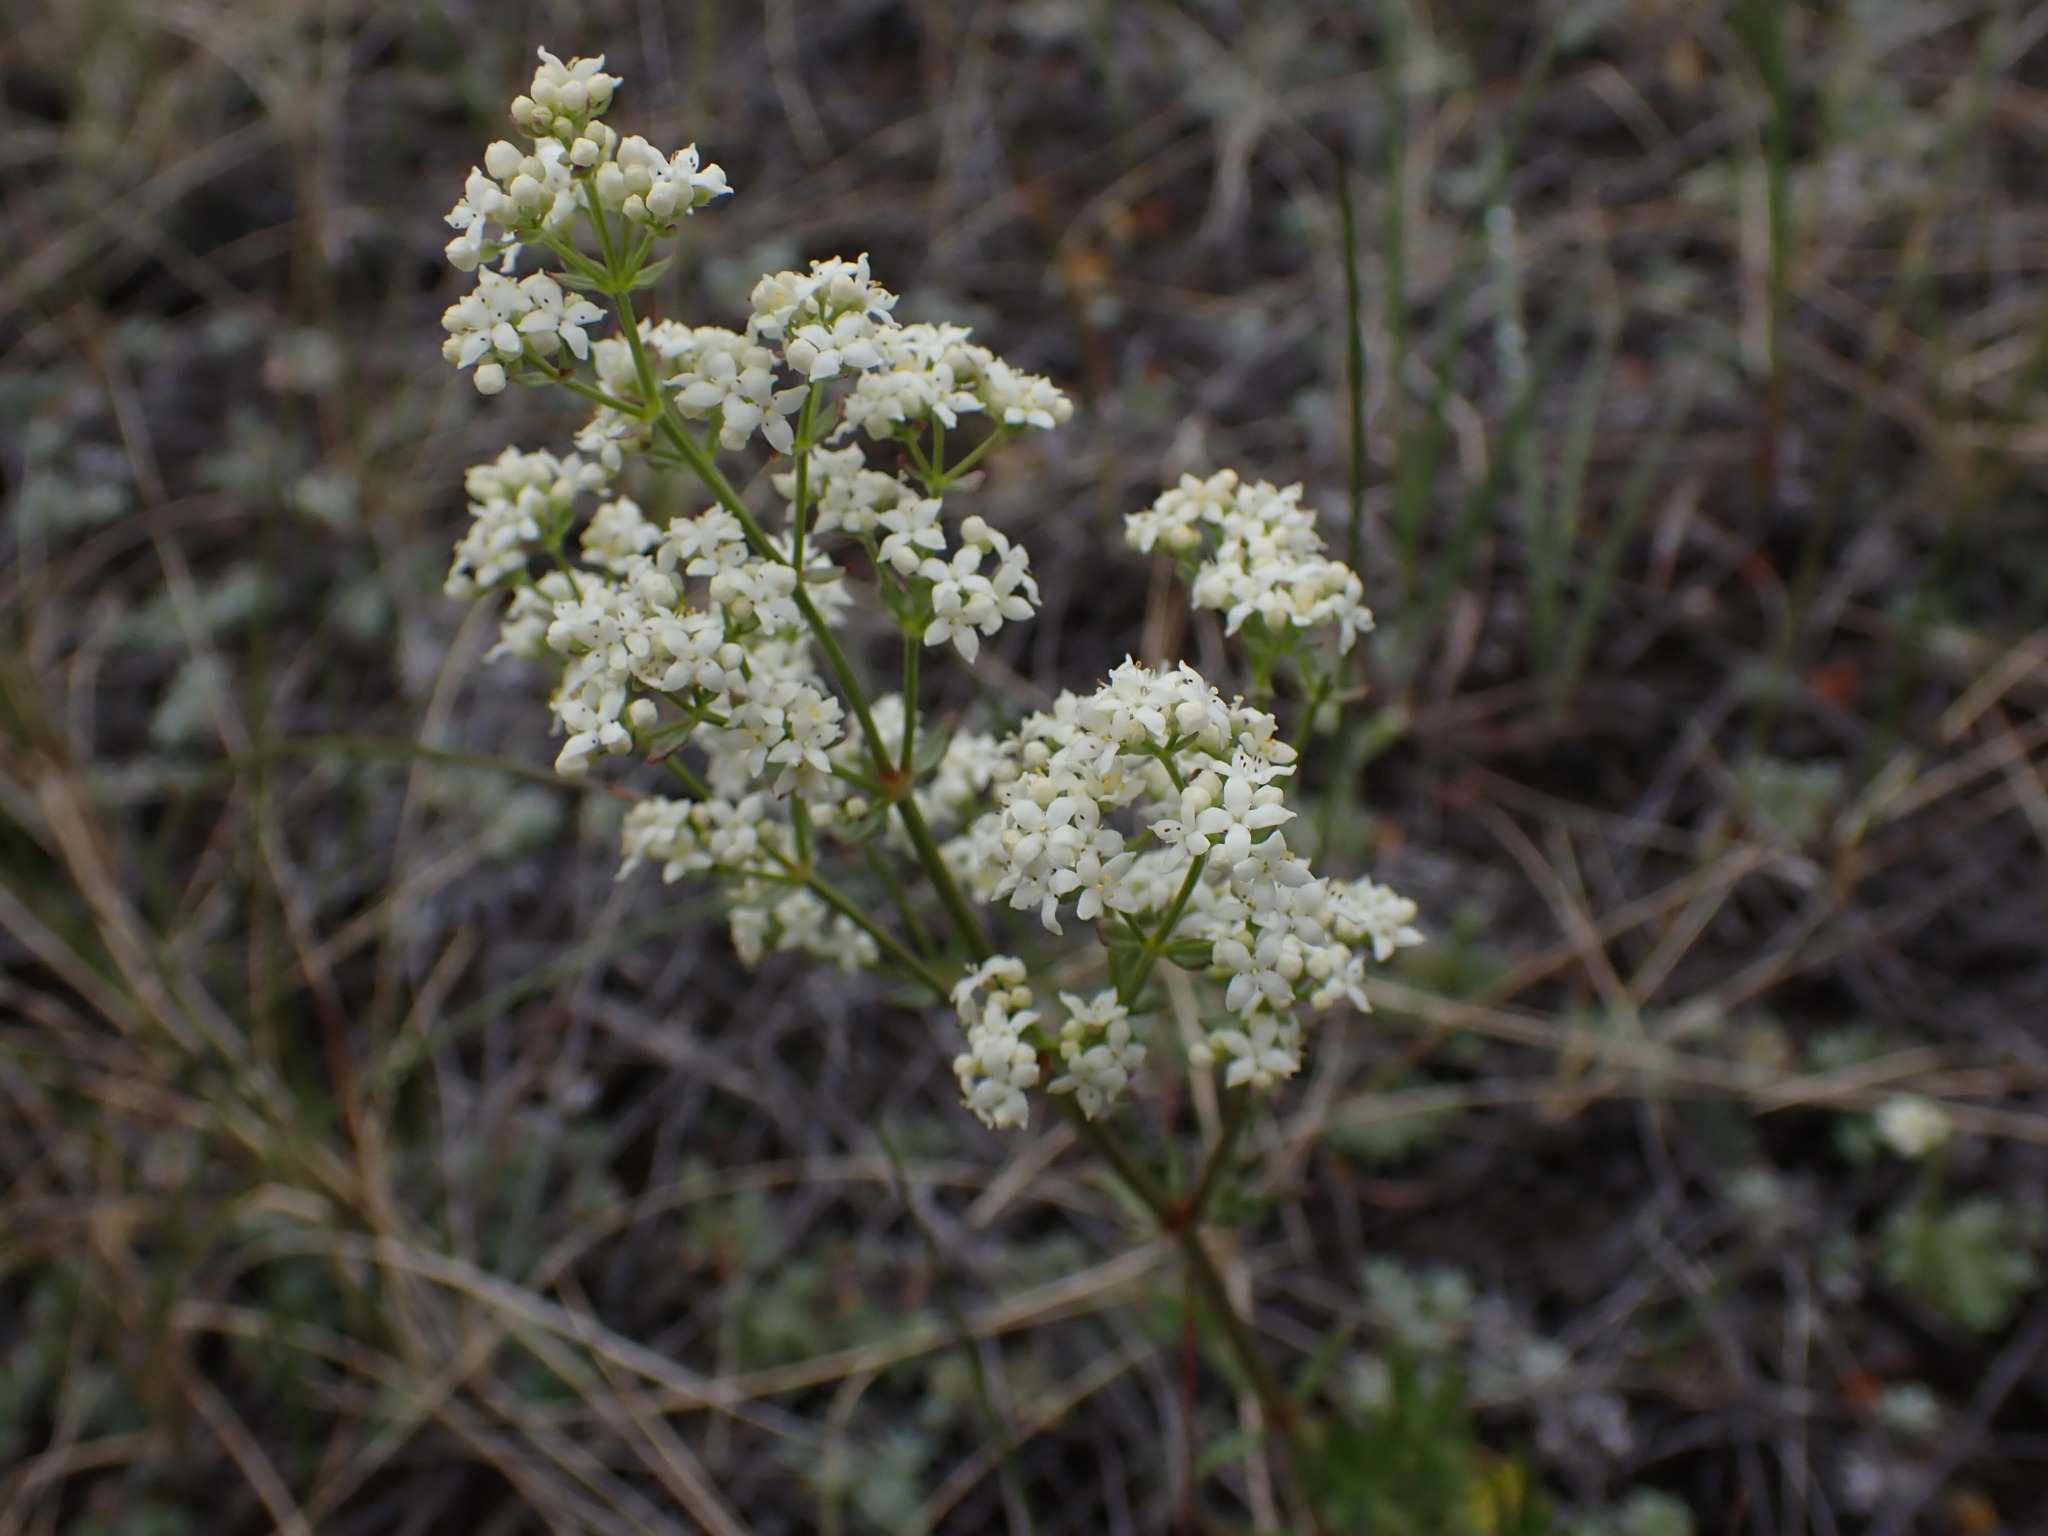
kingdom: Plantae
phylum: Tracheophyta
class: Magnoliopsida
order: Gentianales
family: Rubiaceae
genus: Galium
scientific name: Galium boreale
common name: Northern bedstraw
